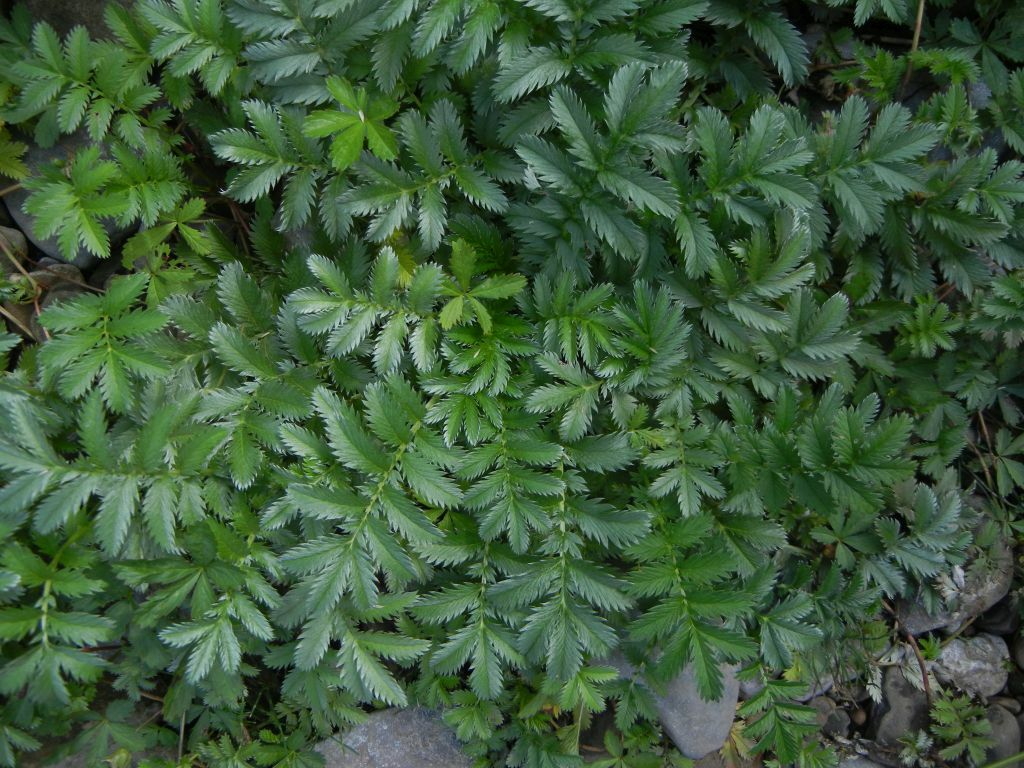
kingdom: Plantae
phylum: Tracheophyta
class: Magnoliopsida
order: Rosales
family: Rosaceae
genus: Argentina
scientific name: Argentina anserina
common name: Common silverweed
